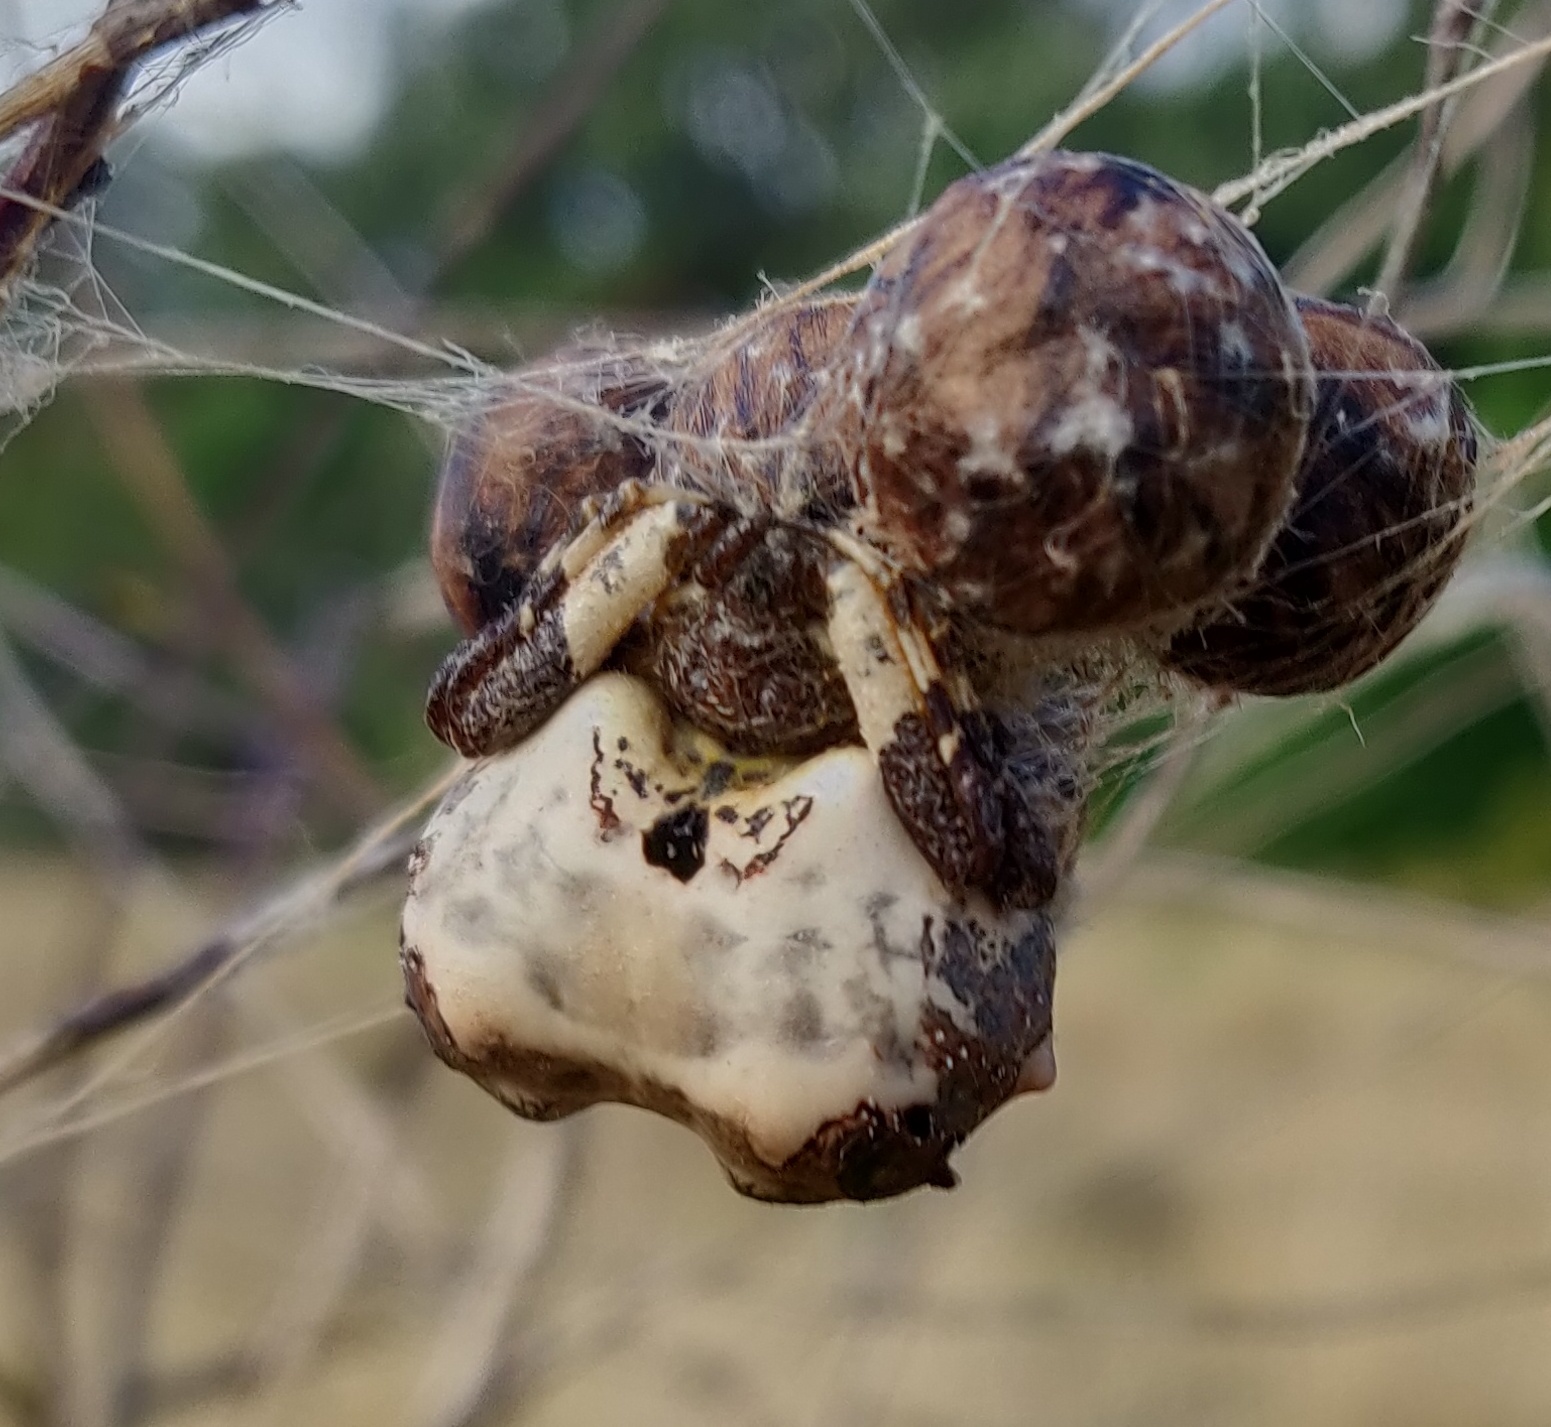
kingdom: Animalia
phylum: Arthropoda
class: Arachnida
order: Araneae
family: Araneidae
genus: Celaenia
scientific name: Celaenia excavata
